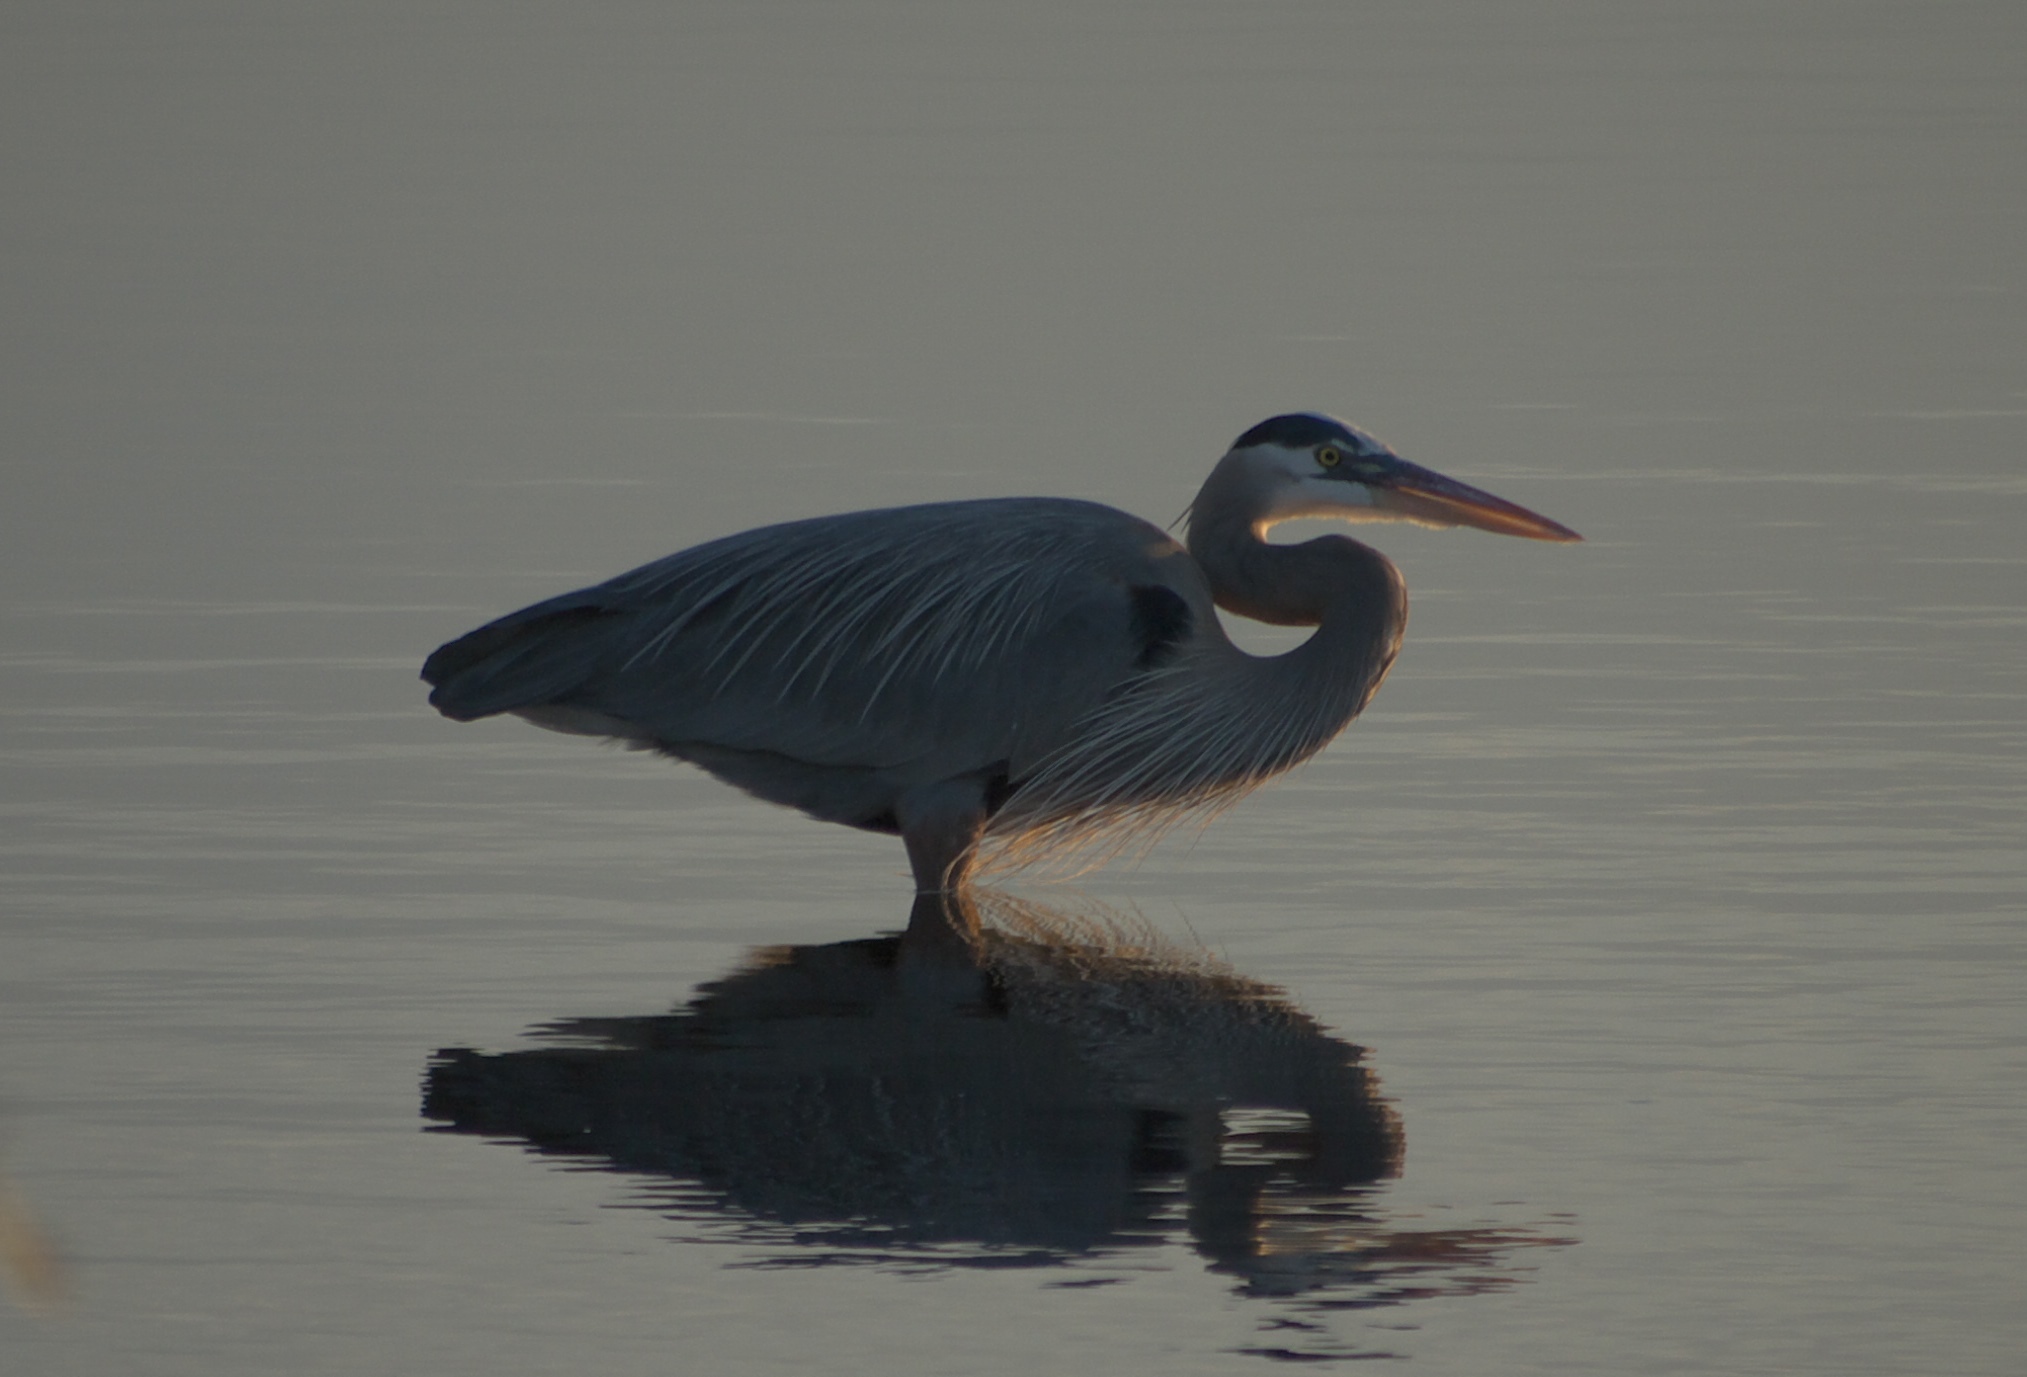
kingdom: Animalia
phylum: Chordata
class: Aves
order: Pelecaniformes
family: Ardeidae
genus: Ardea
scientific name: Ardea herodias
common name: Great blue heron
